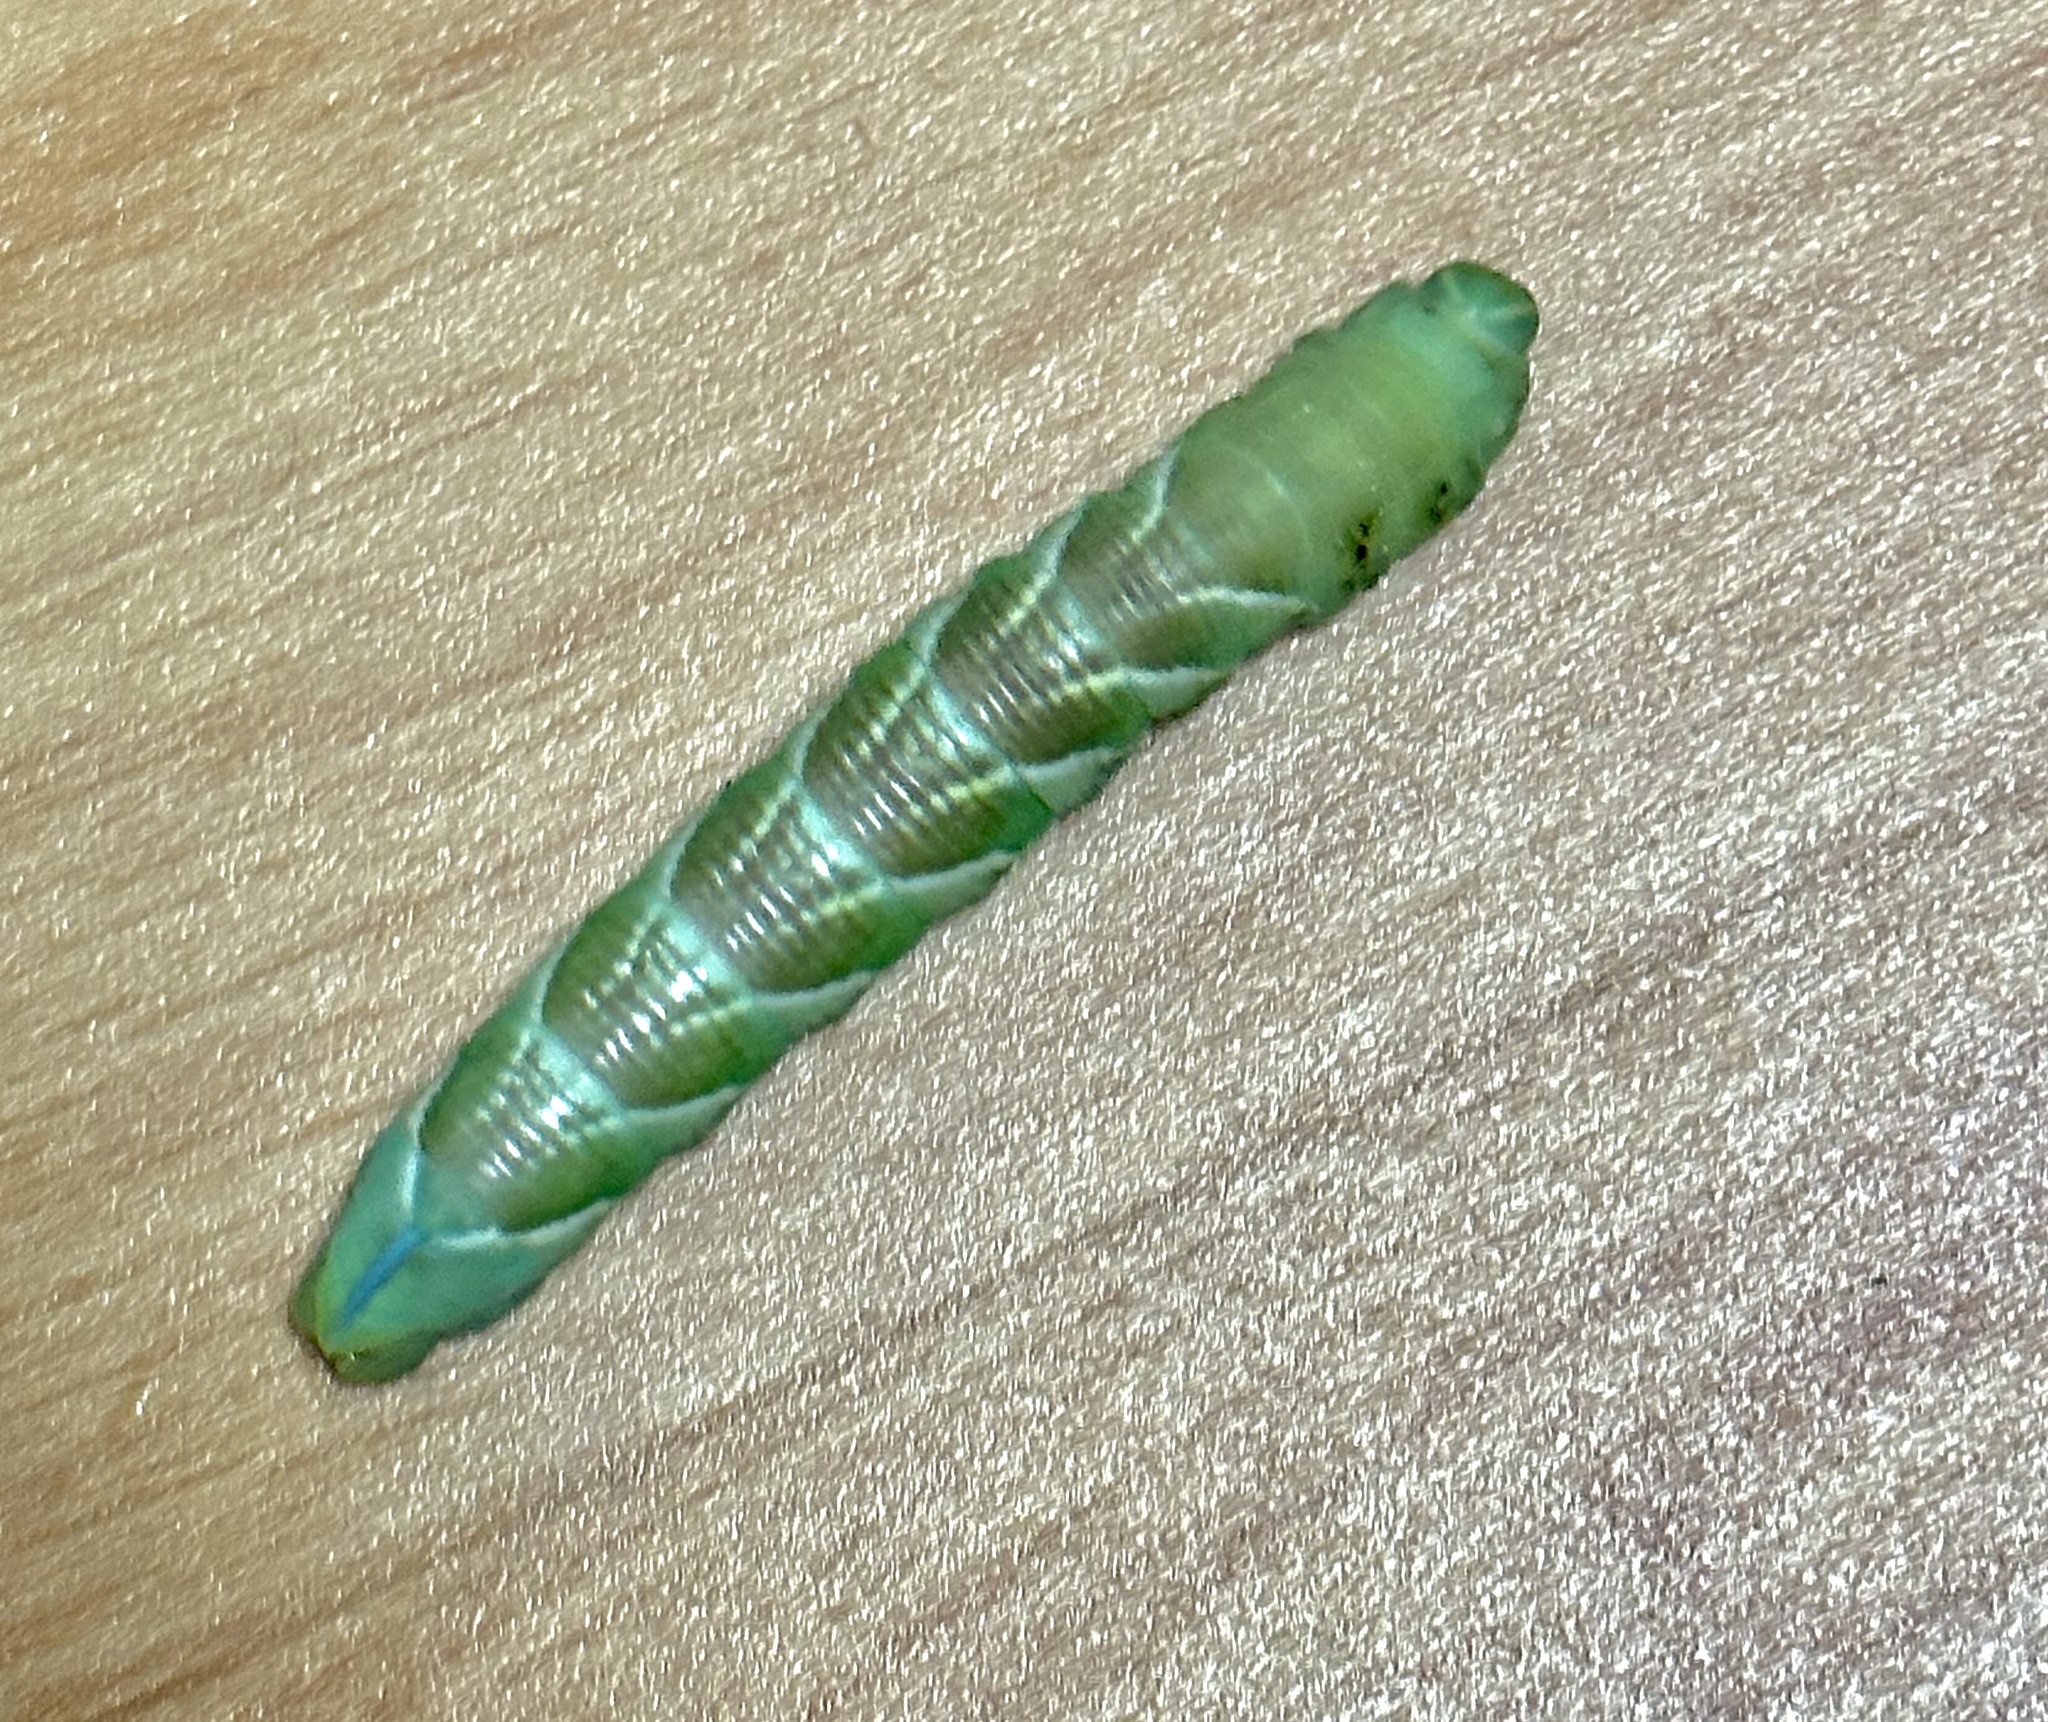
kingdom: Animalia
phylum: Arthropoda
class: Insecta
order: Lepidoptera
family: Sphingidae
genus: Sphinx
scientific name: Sphinx chersis
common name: Great ash sphinx
